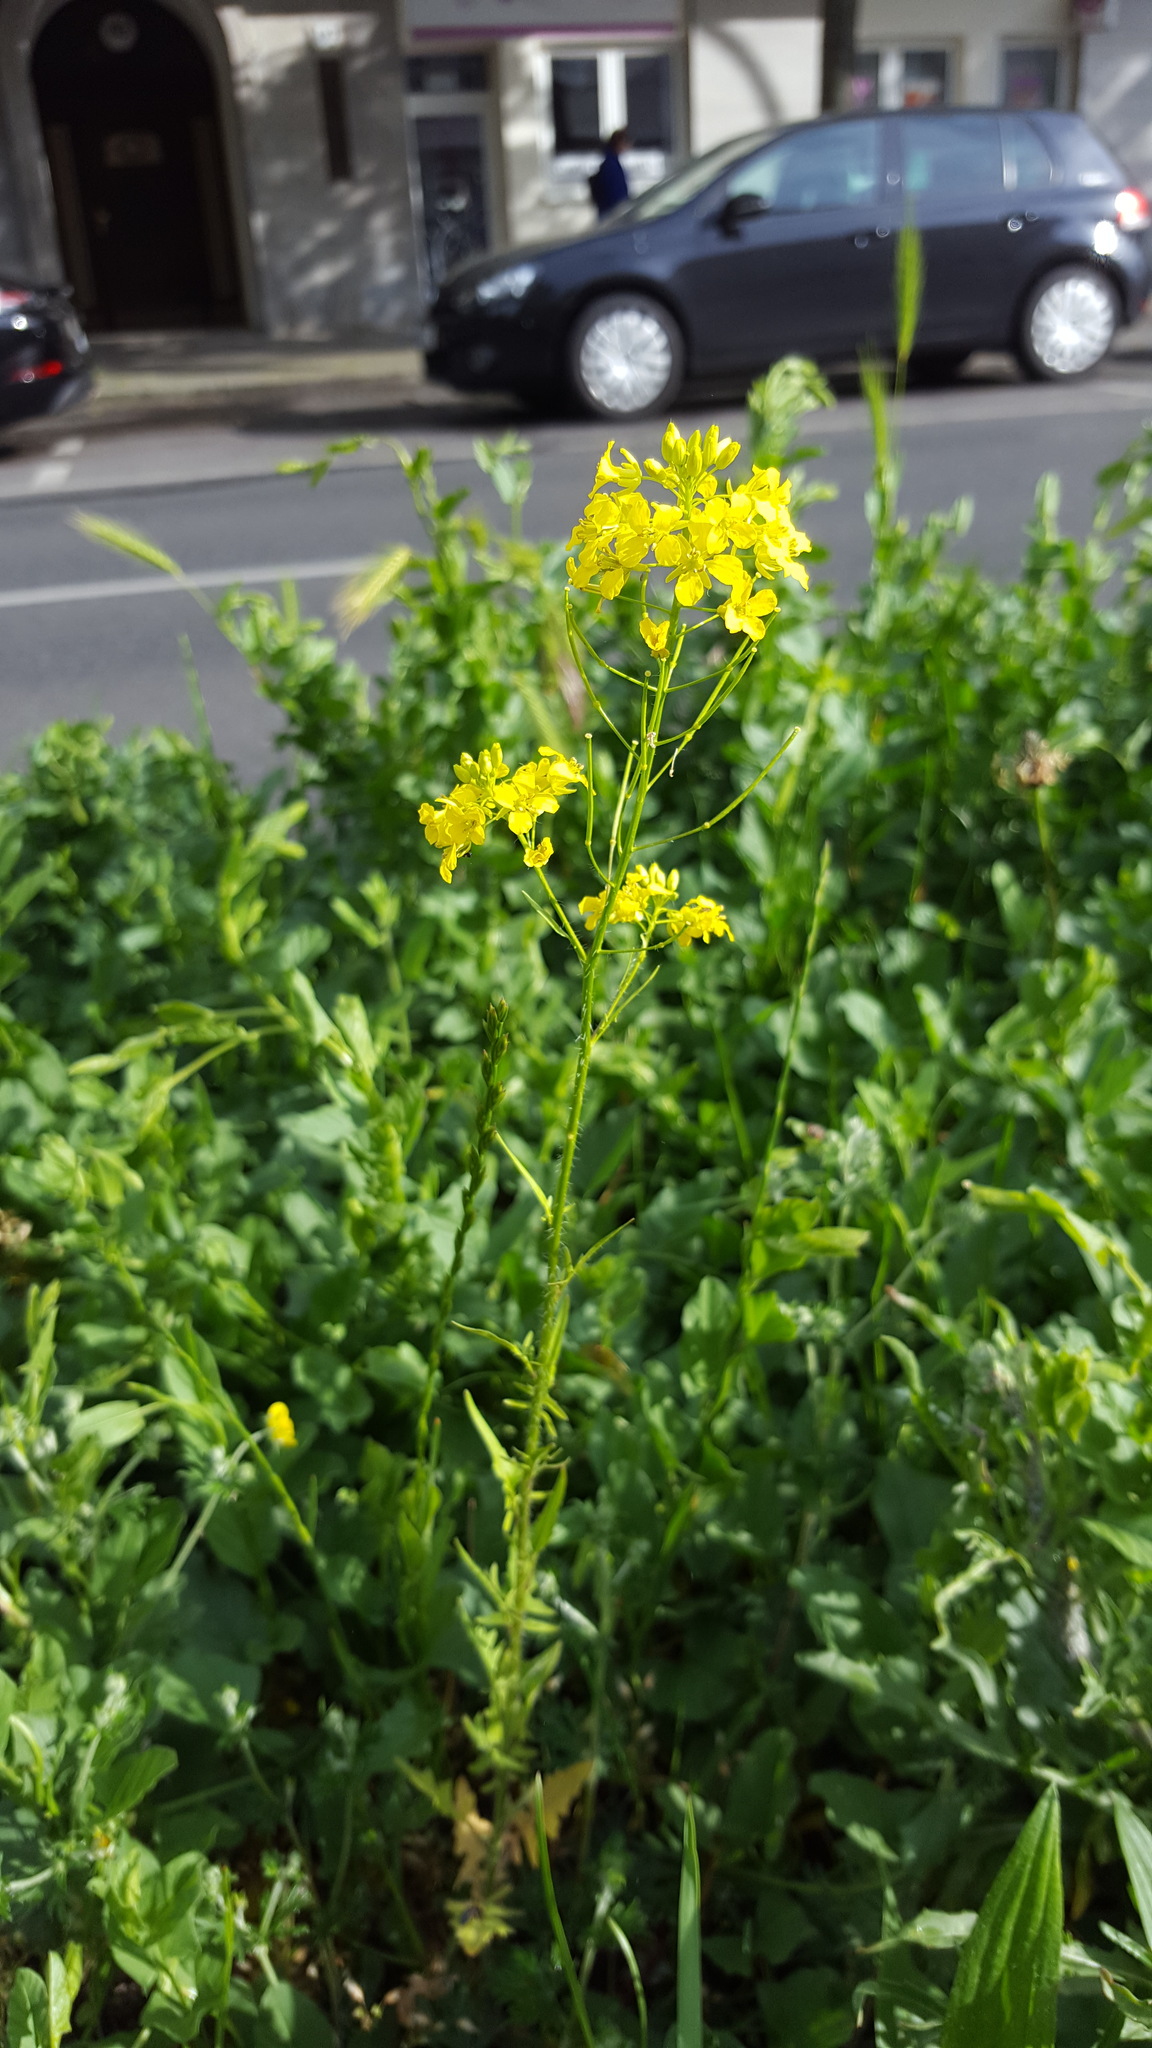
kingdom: Plantae
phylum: Tracheophyta
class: Magnoliopsida
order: Brassicales
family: Brassicaceae
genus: Sisymbrium
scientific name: Sisymbrium loeselii
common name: False london-rocket
